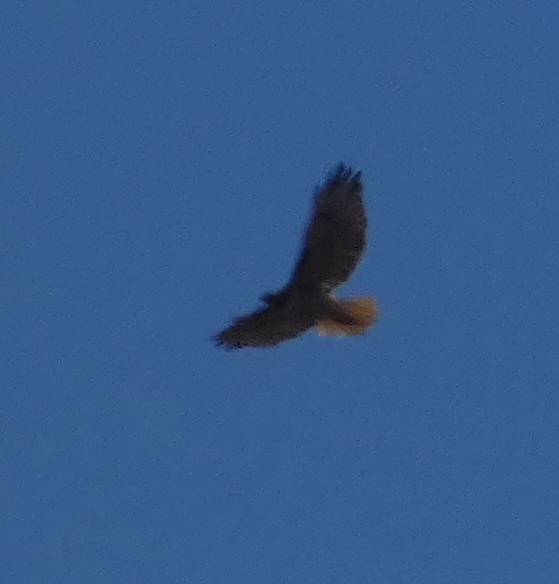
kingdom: Animalia
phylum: Chordata
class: Aves
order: Accipitriformes
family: Accipitridae
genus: Buteo
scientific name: Buteo jamaicensis
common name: Red-tailed hawk
